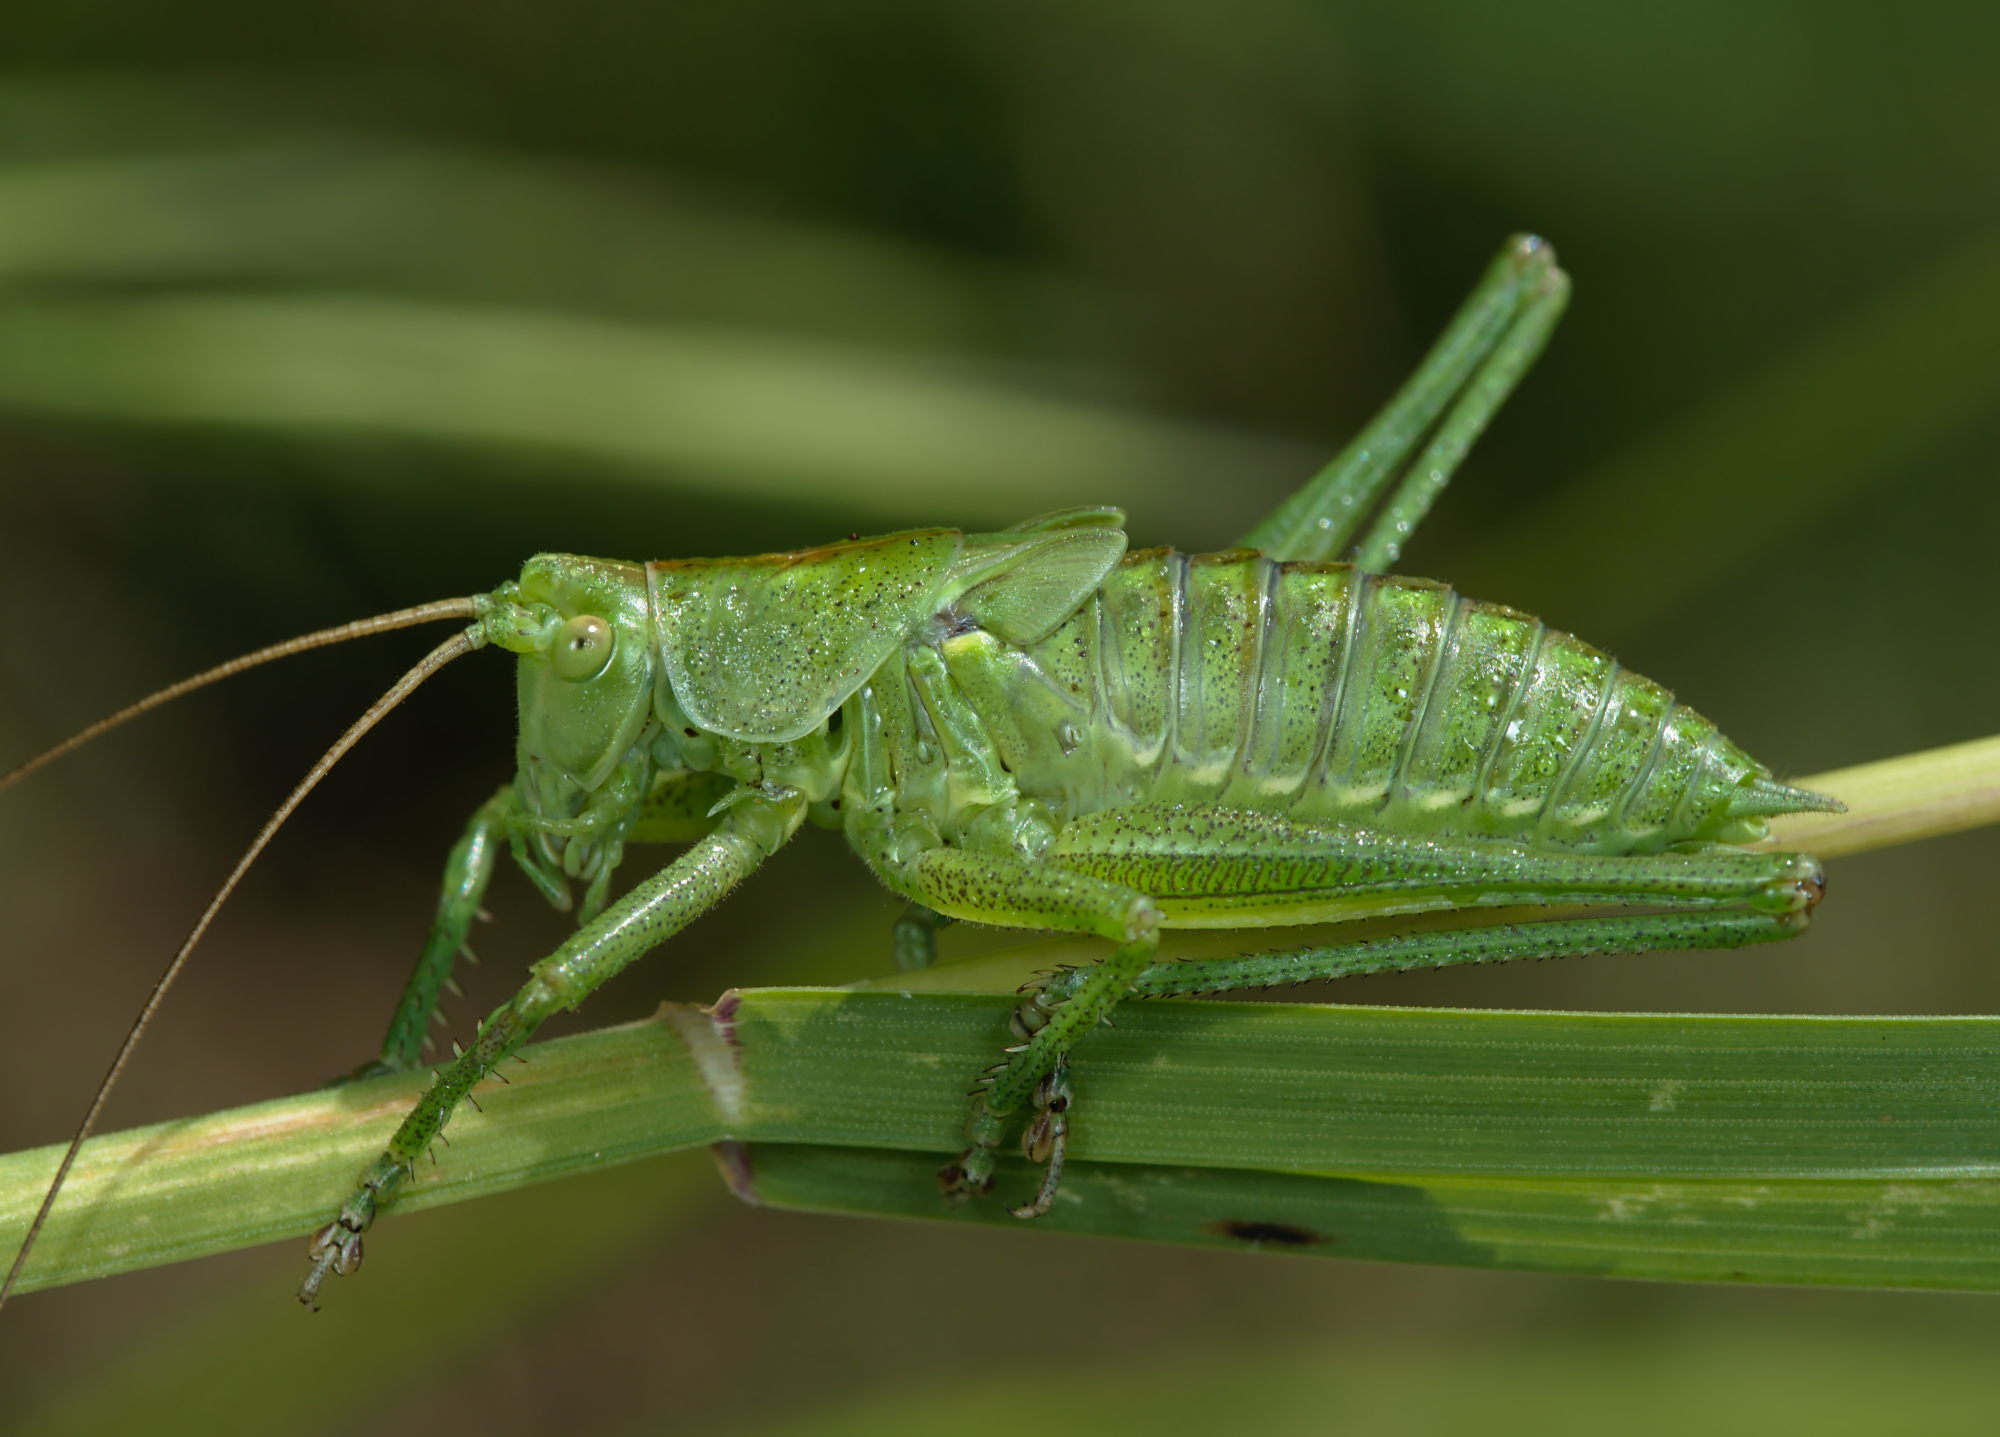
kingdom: Animalia
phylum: Arthropoda
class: Insecta
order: Orthoptera
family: Tettigoniidae
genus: Tettigonia
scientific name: Tettigonia viridissima
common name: Great green bush-cricket
